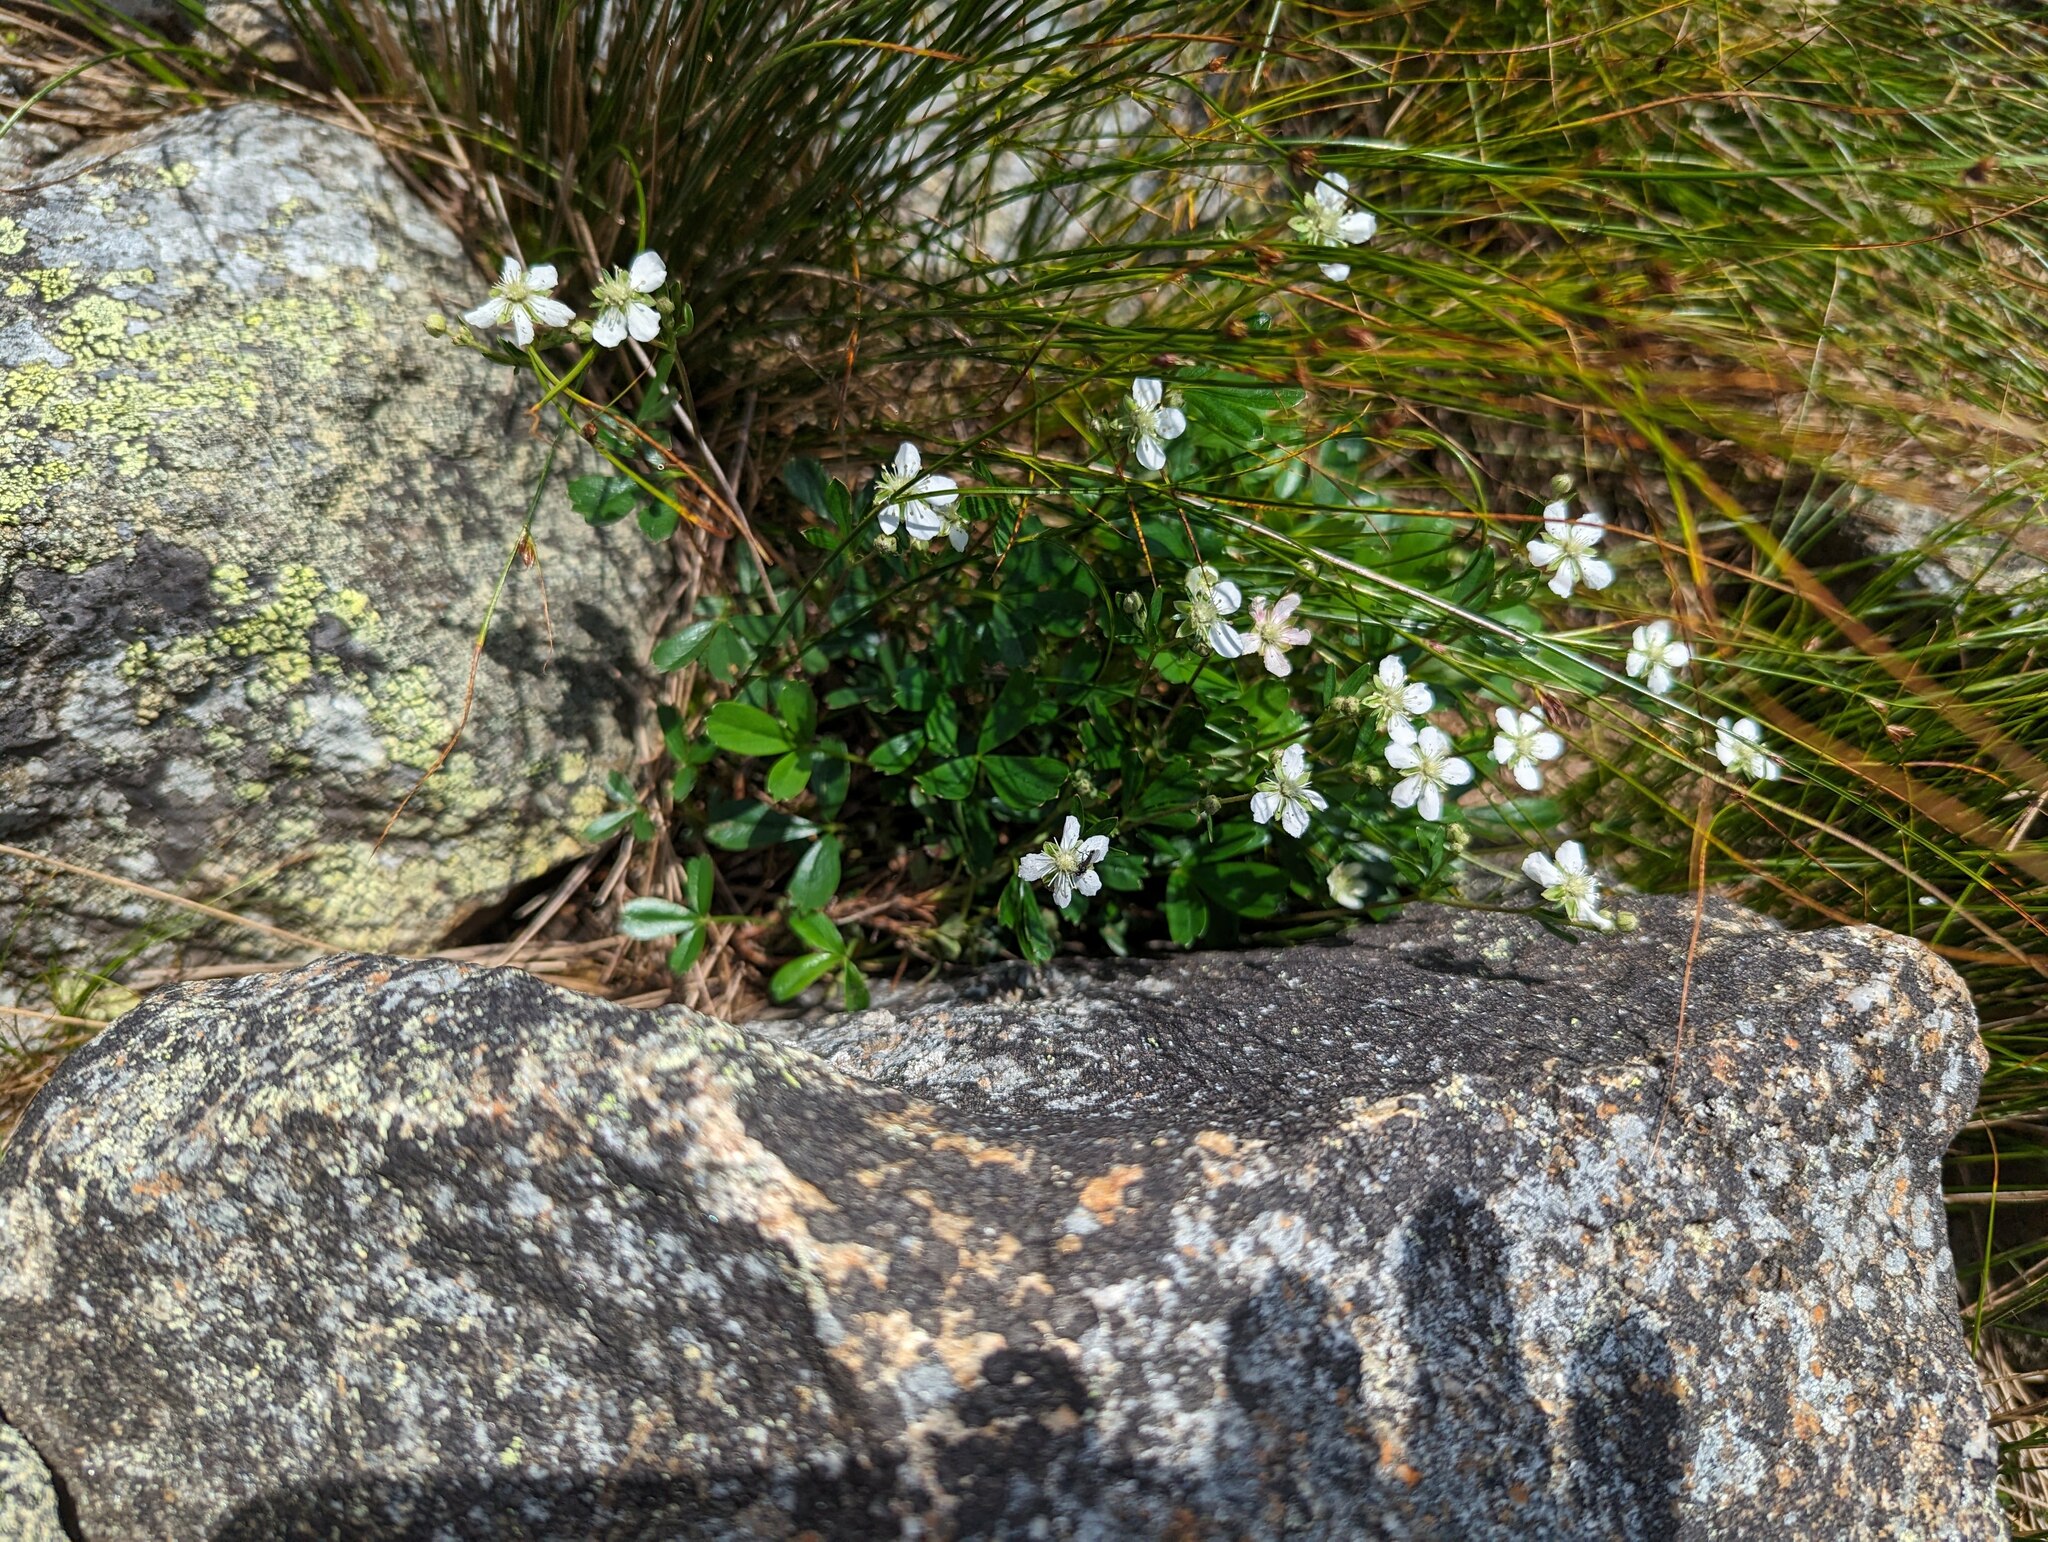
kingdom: Plantae
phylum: Tracheophyta
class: Magnoliopsida
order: Caryophyllales
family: Caryophyllaceae
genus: Geocarpon
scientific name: Geocarpon groenlandicum
